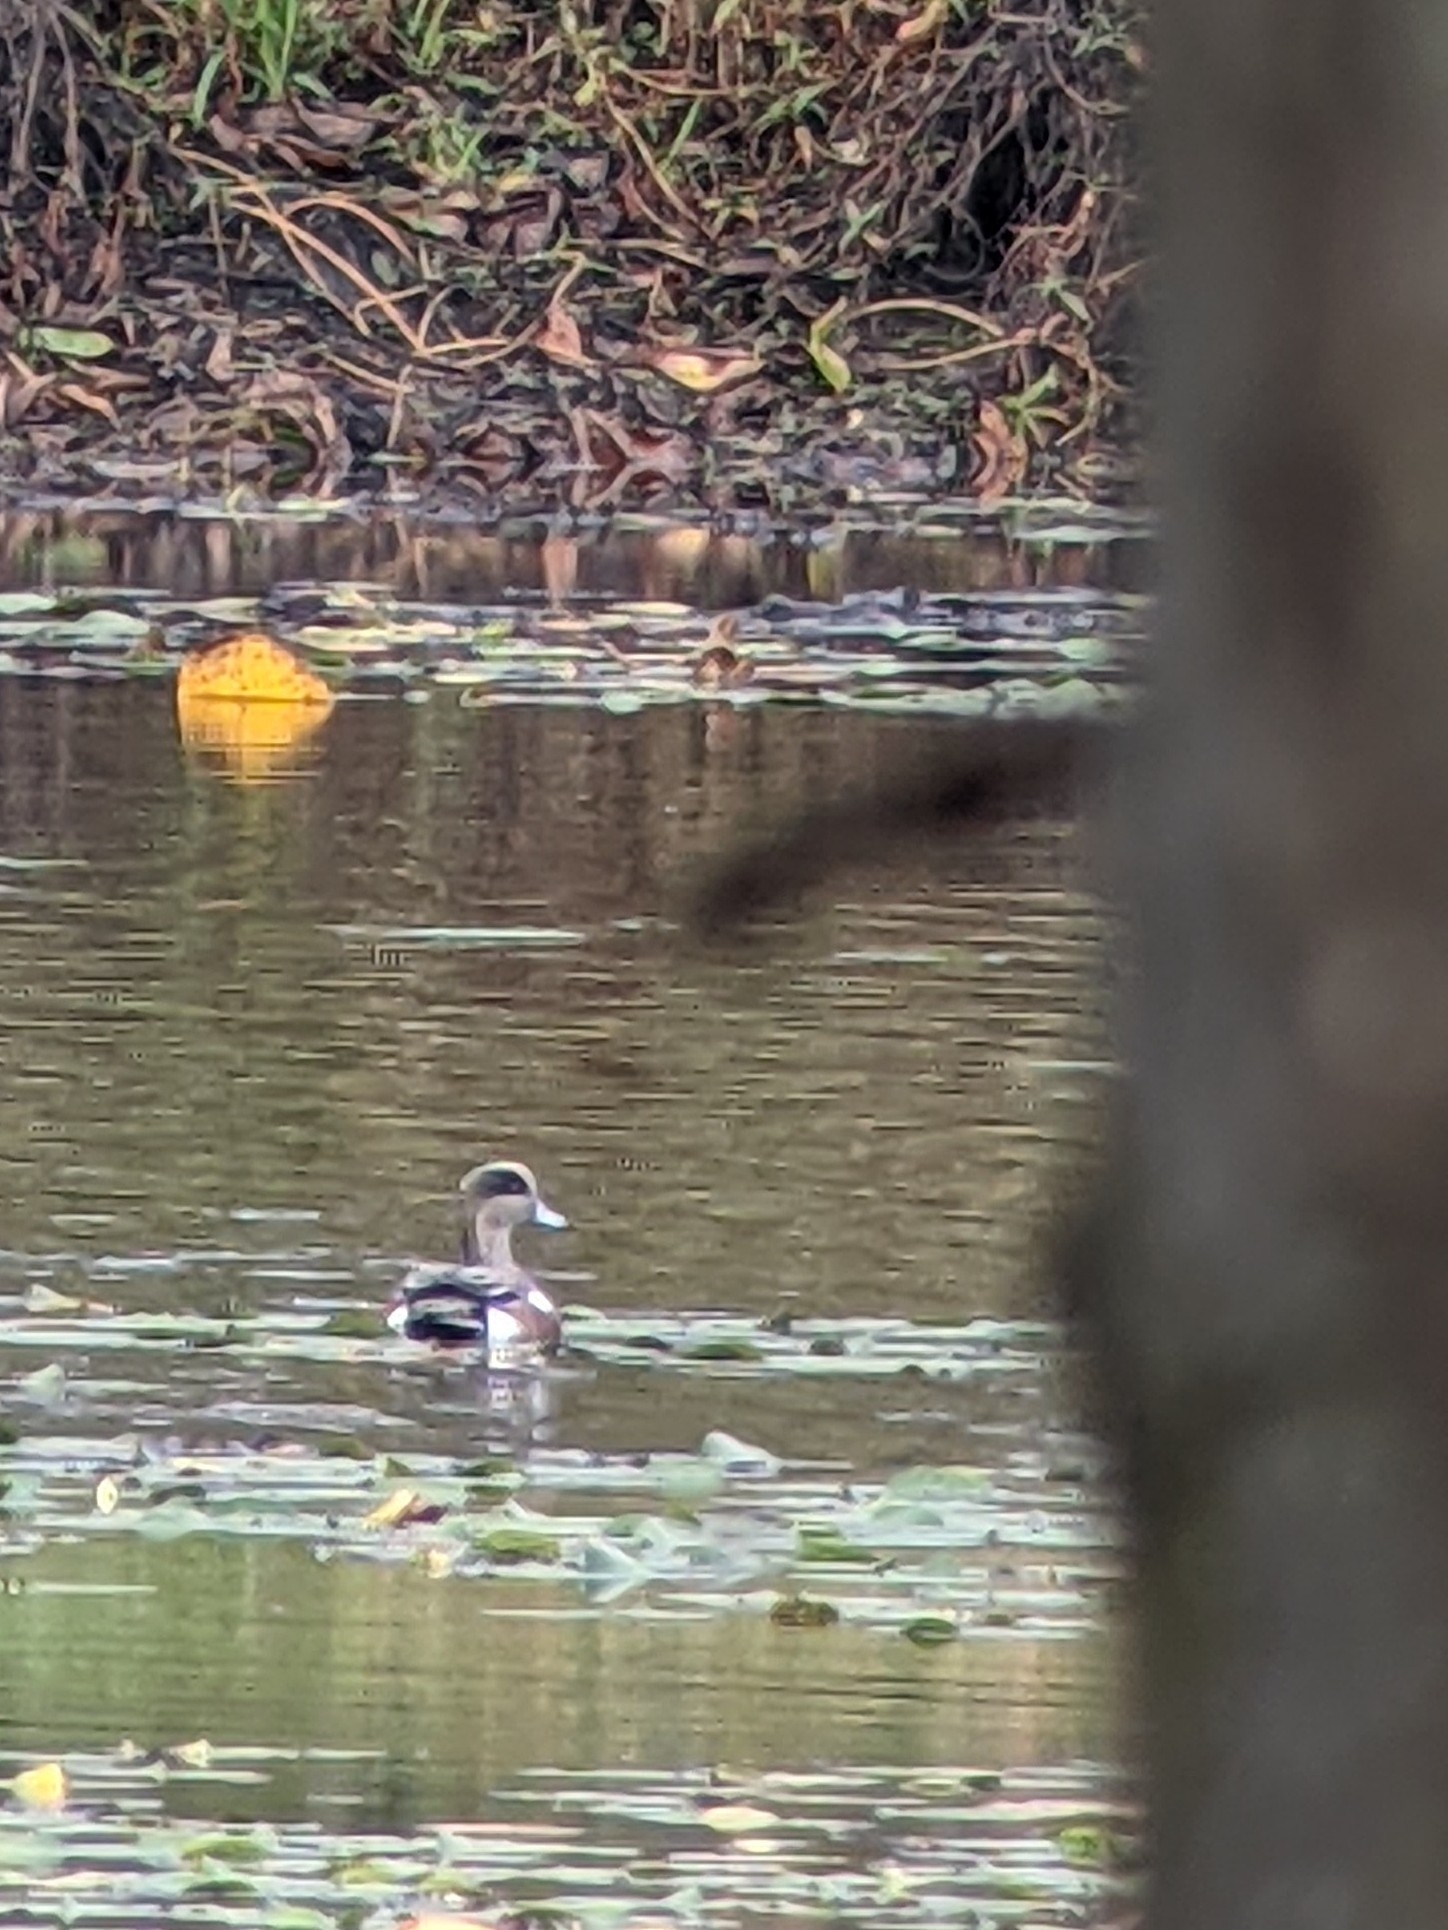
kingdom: Animalia
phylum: Chordata
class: Aves
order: Anseriformes
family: Anatidae
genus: Mareca
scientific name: Mareca americana
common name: American wigeon
